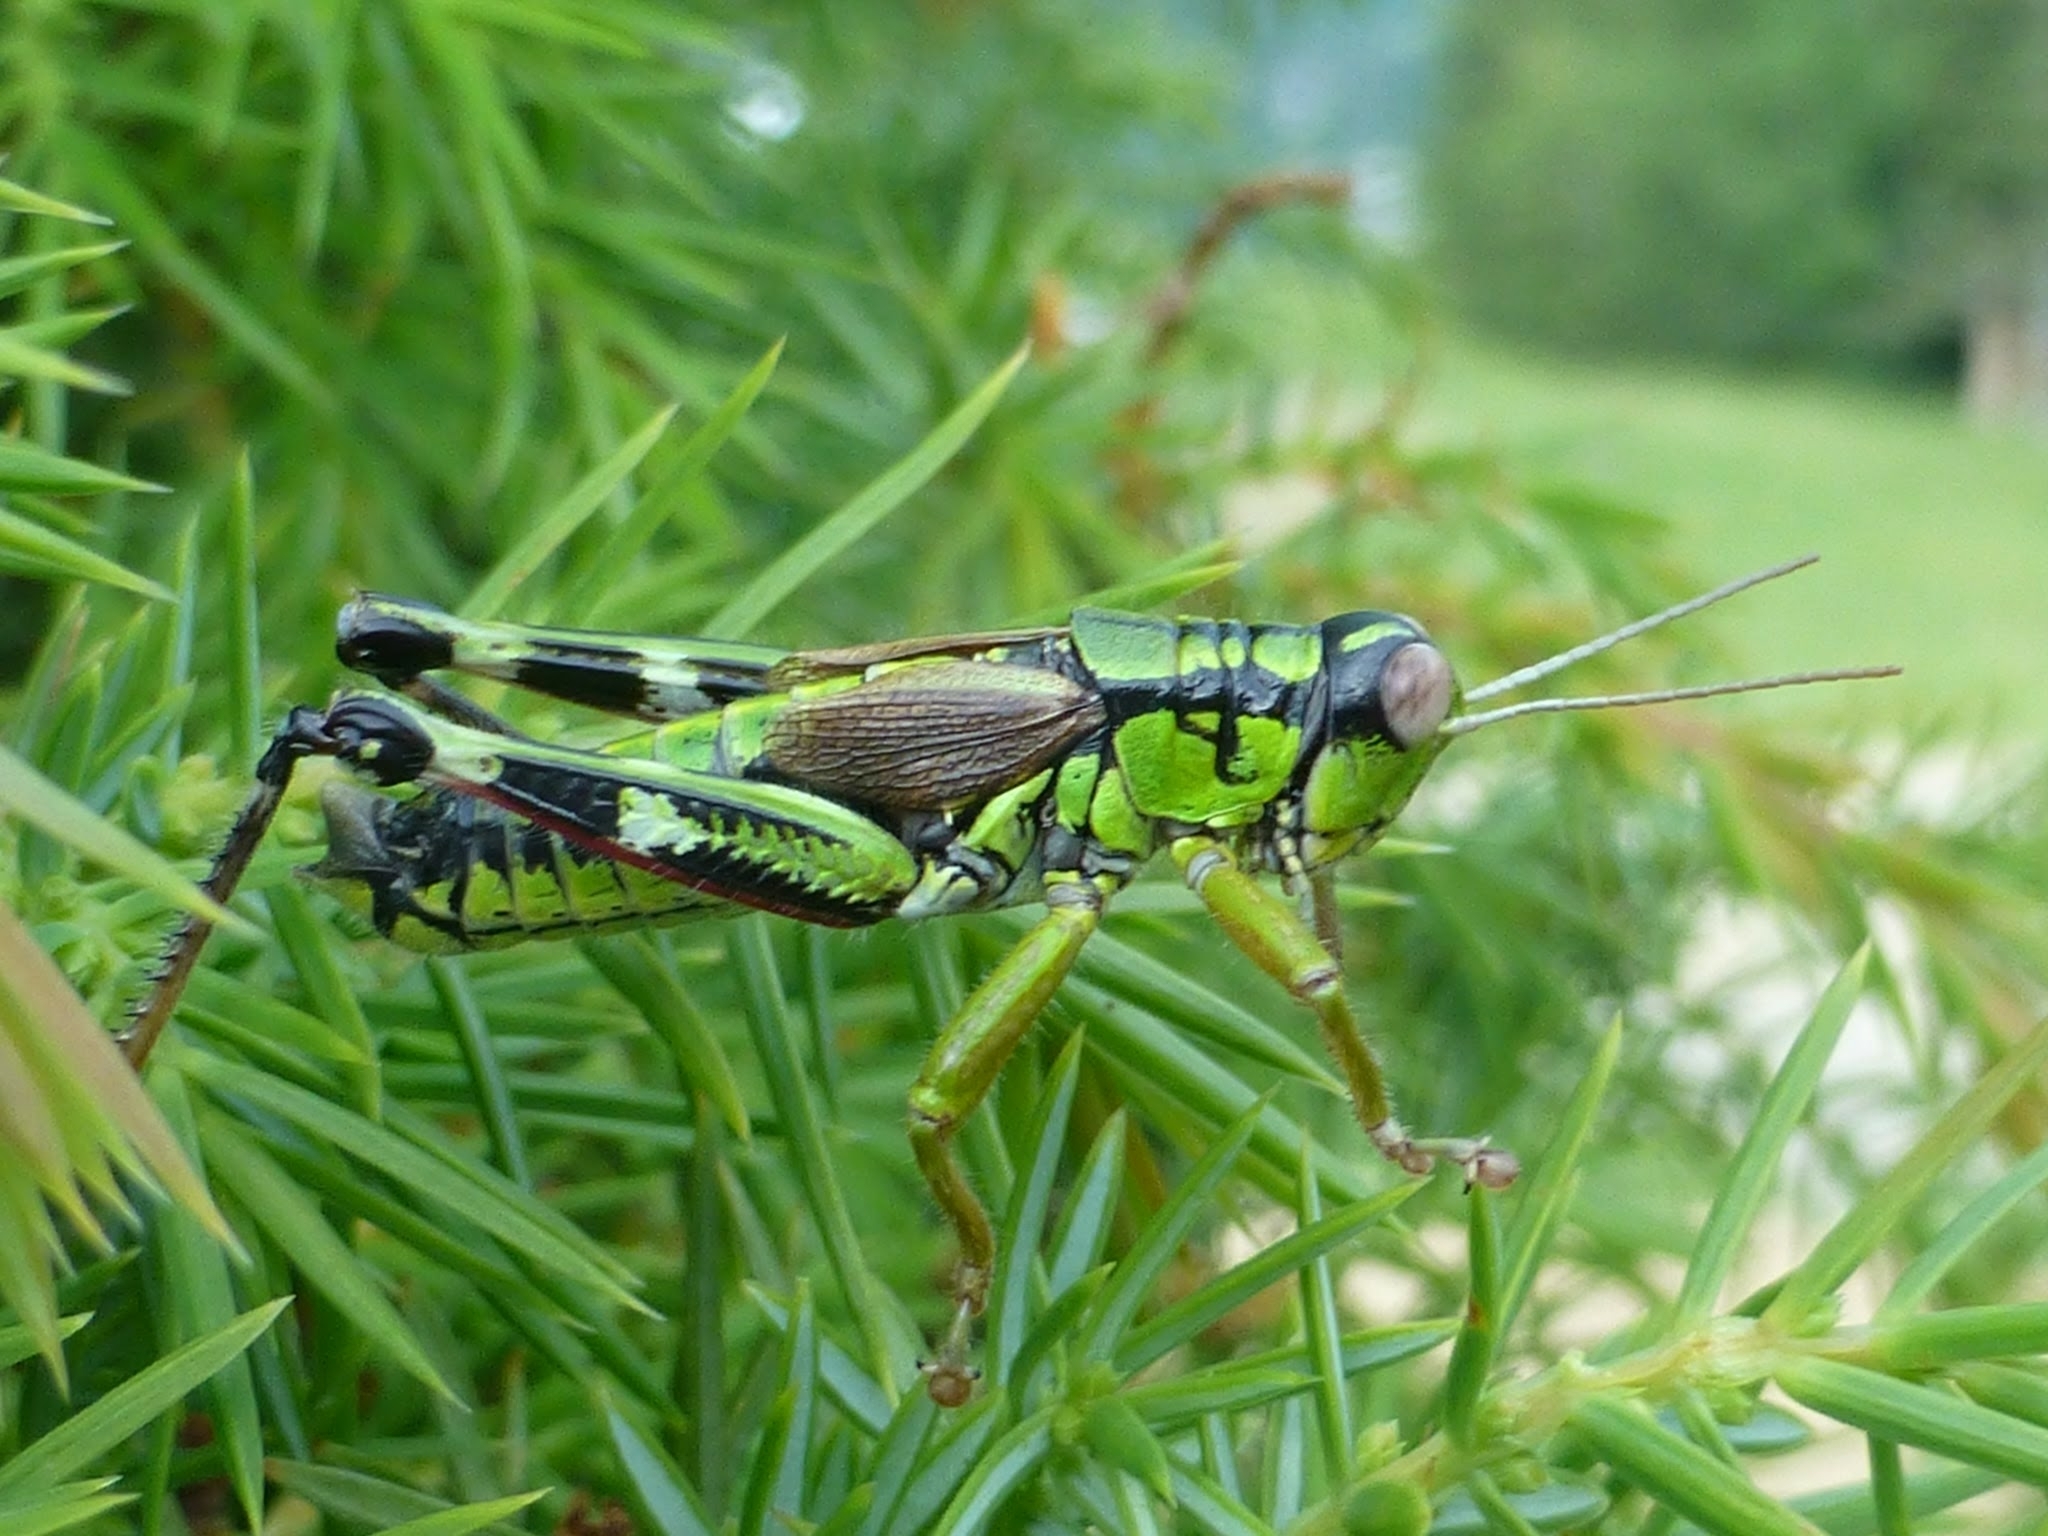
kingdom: Animalia
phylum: Arthropoda
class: Insecta
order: Orthoptera
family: Acrididae
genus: Miramella
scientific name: Miramella alpina
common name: Green mountain grasshopper
